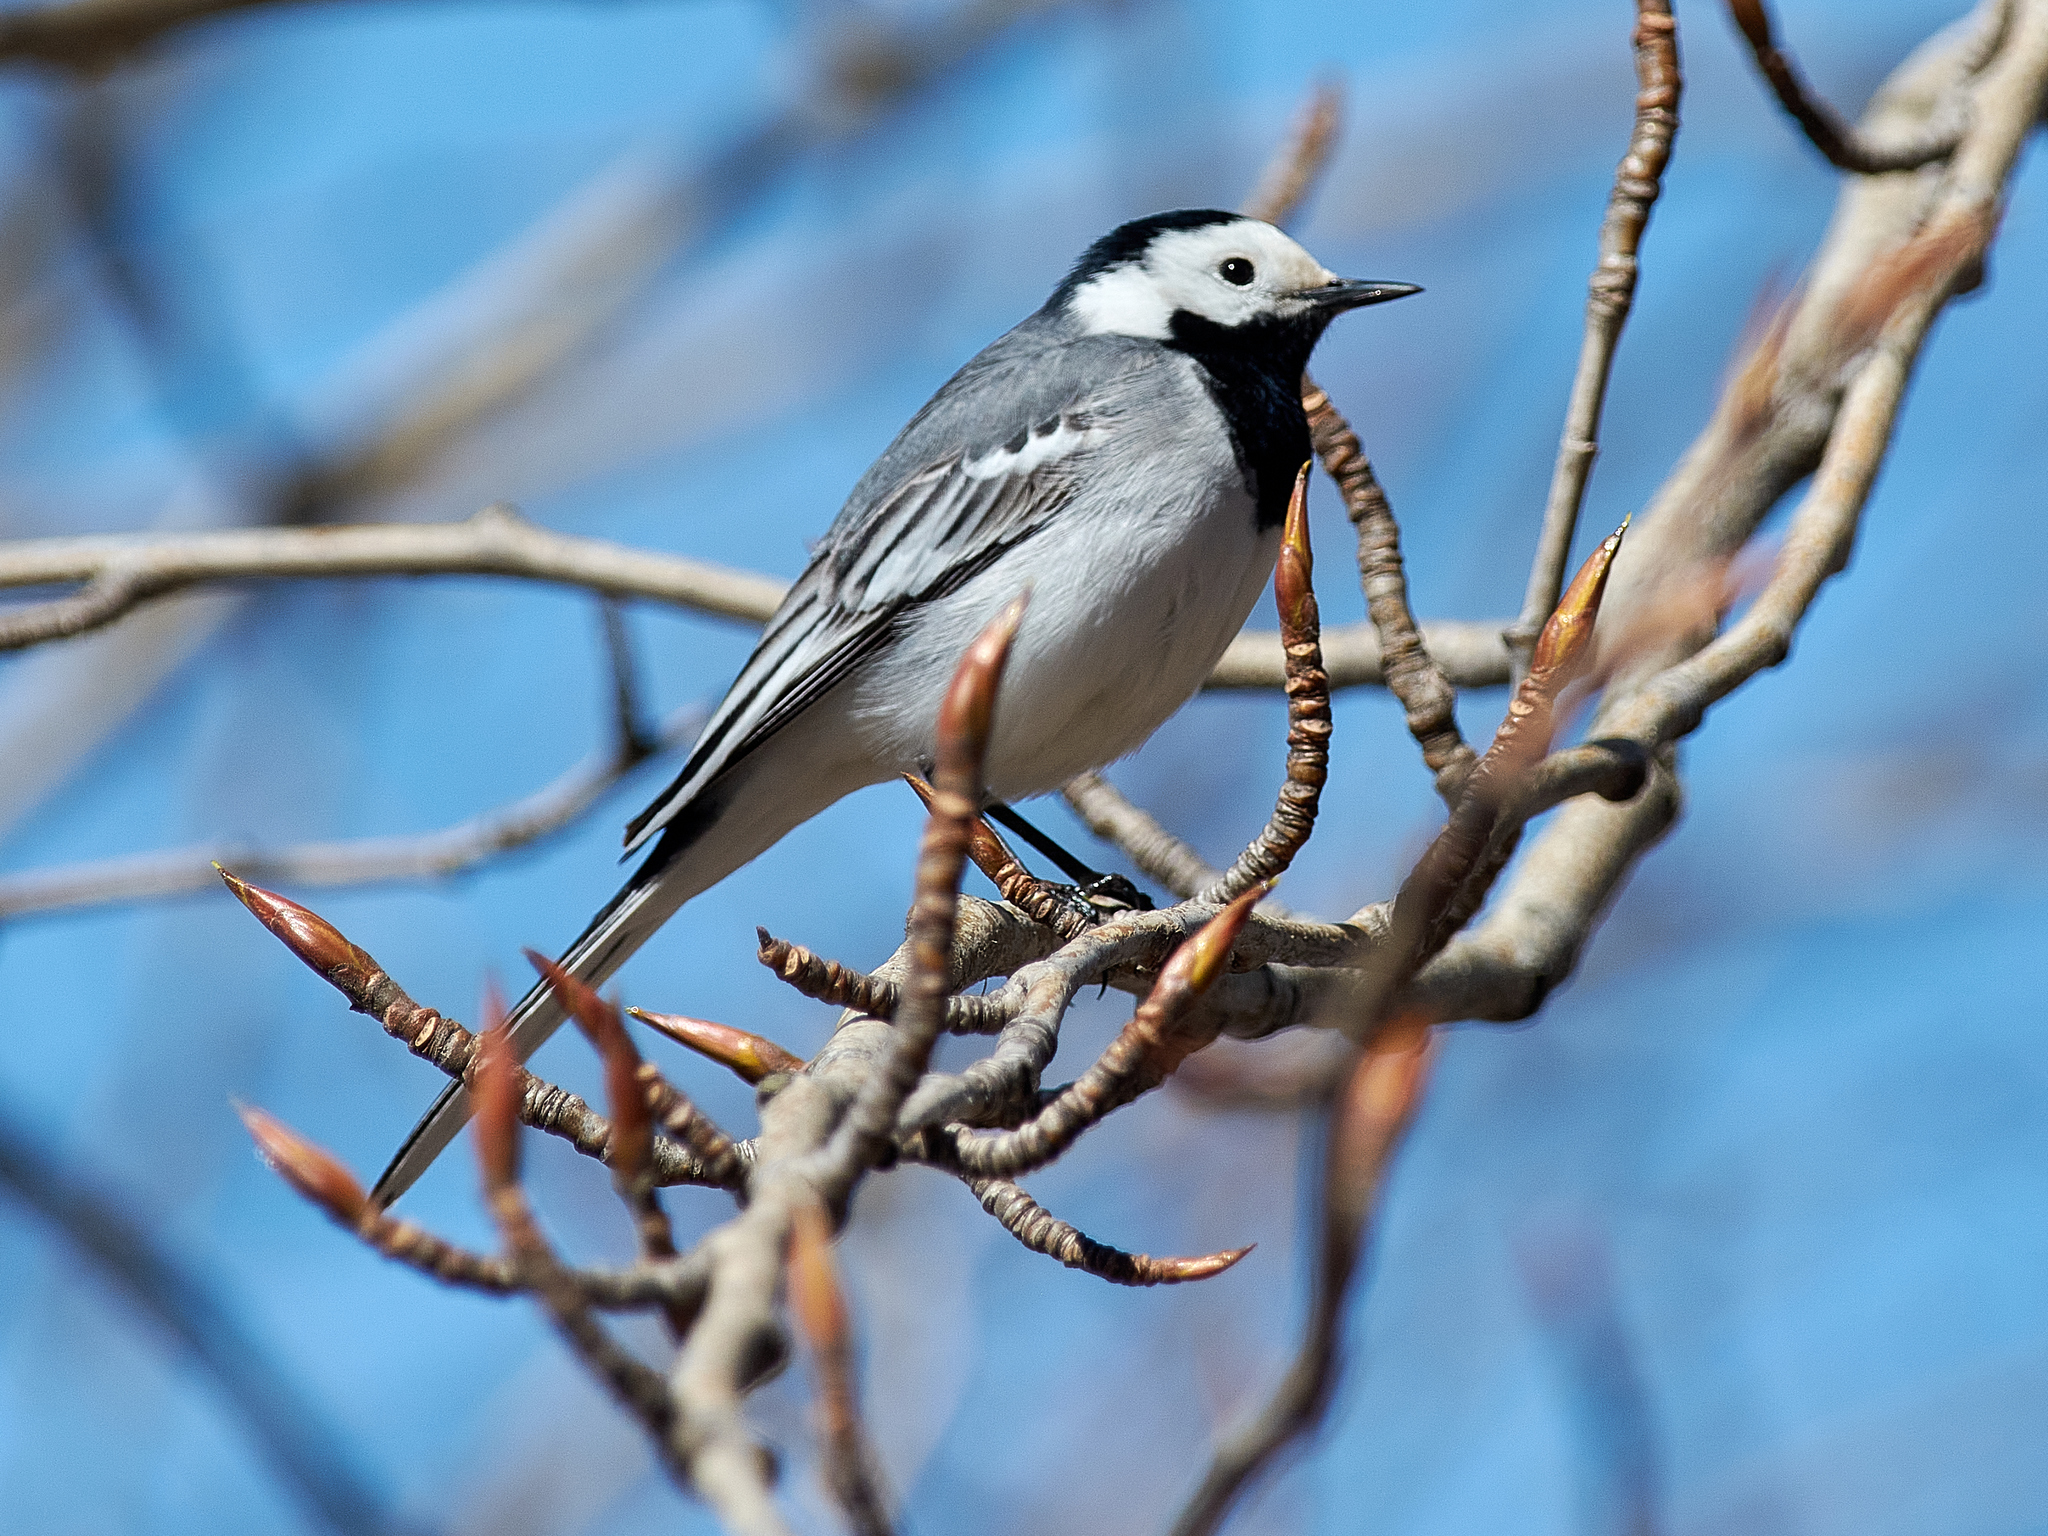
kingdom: Animalia
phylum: Chordata
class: Aves
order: Passeriformes
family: Motacillidae
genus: Motacilla
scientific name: Motacilla alba
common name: White wagtail
